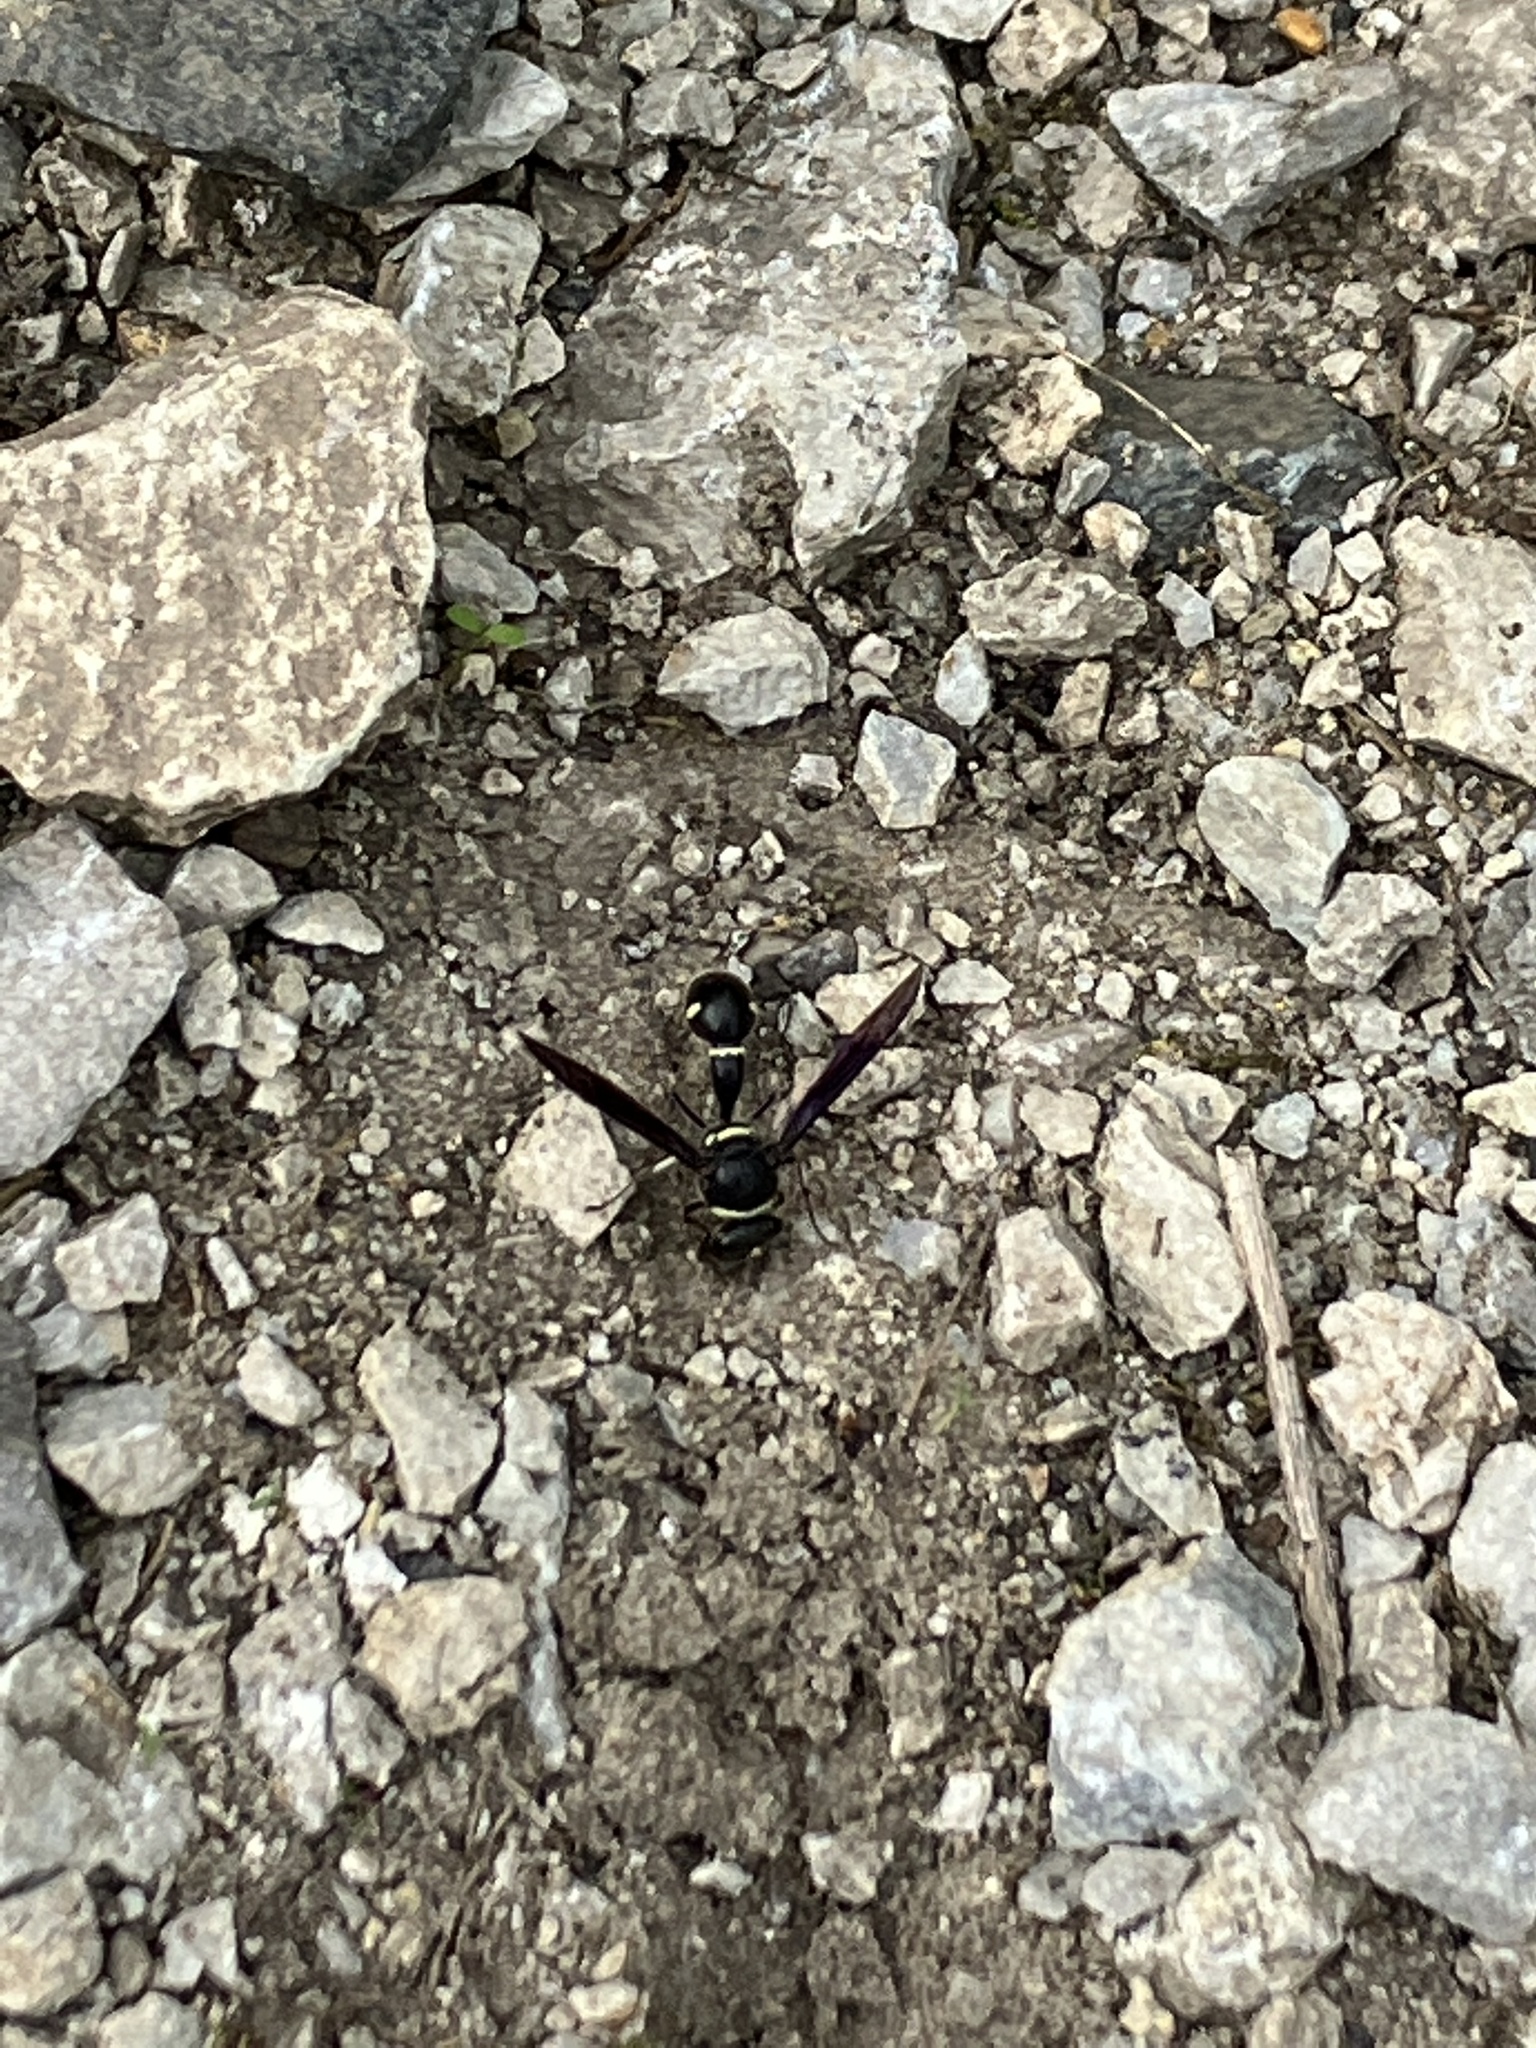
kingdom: Animalia
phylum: Arthropoda
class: Insecta
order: Hymenoptera
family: Vespidae
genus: Eumenes
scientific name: Eumenes fraternus
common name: Fraternal potter wasp
